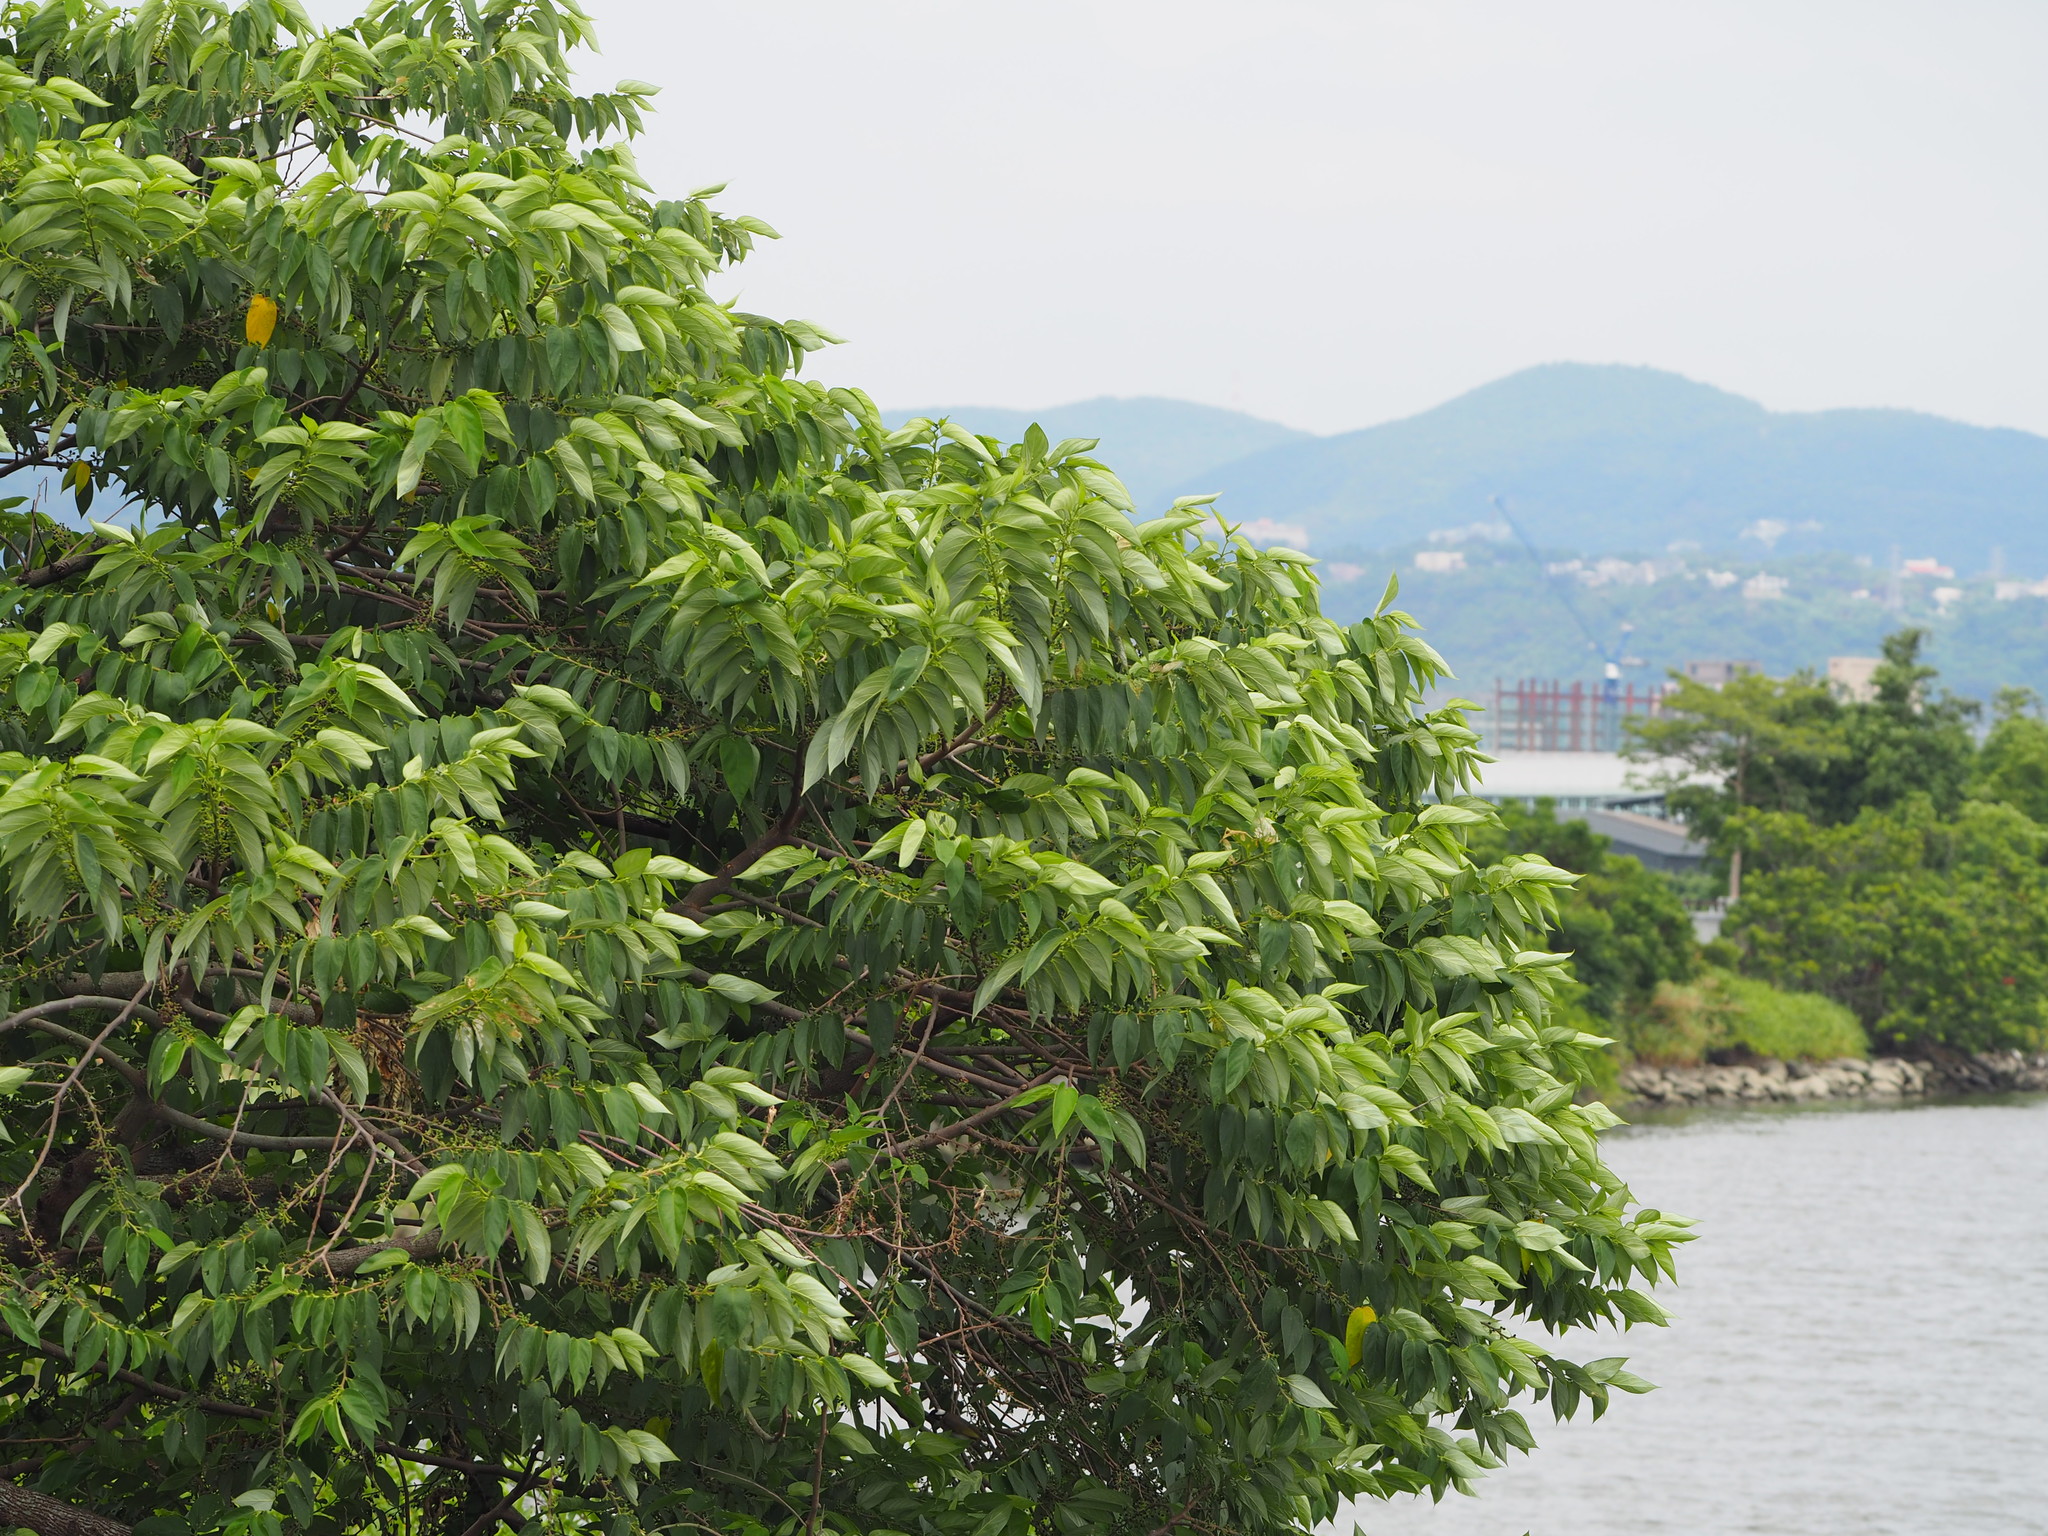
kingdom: Plantae
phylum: Tracheophyta
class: Magnoliopsida
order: Rosales
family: Cannabaceae
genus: Trema
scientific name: Trema orientale
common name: Indian charcoal tree
